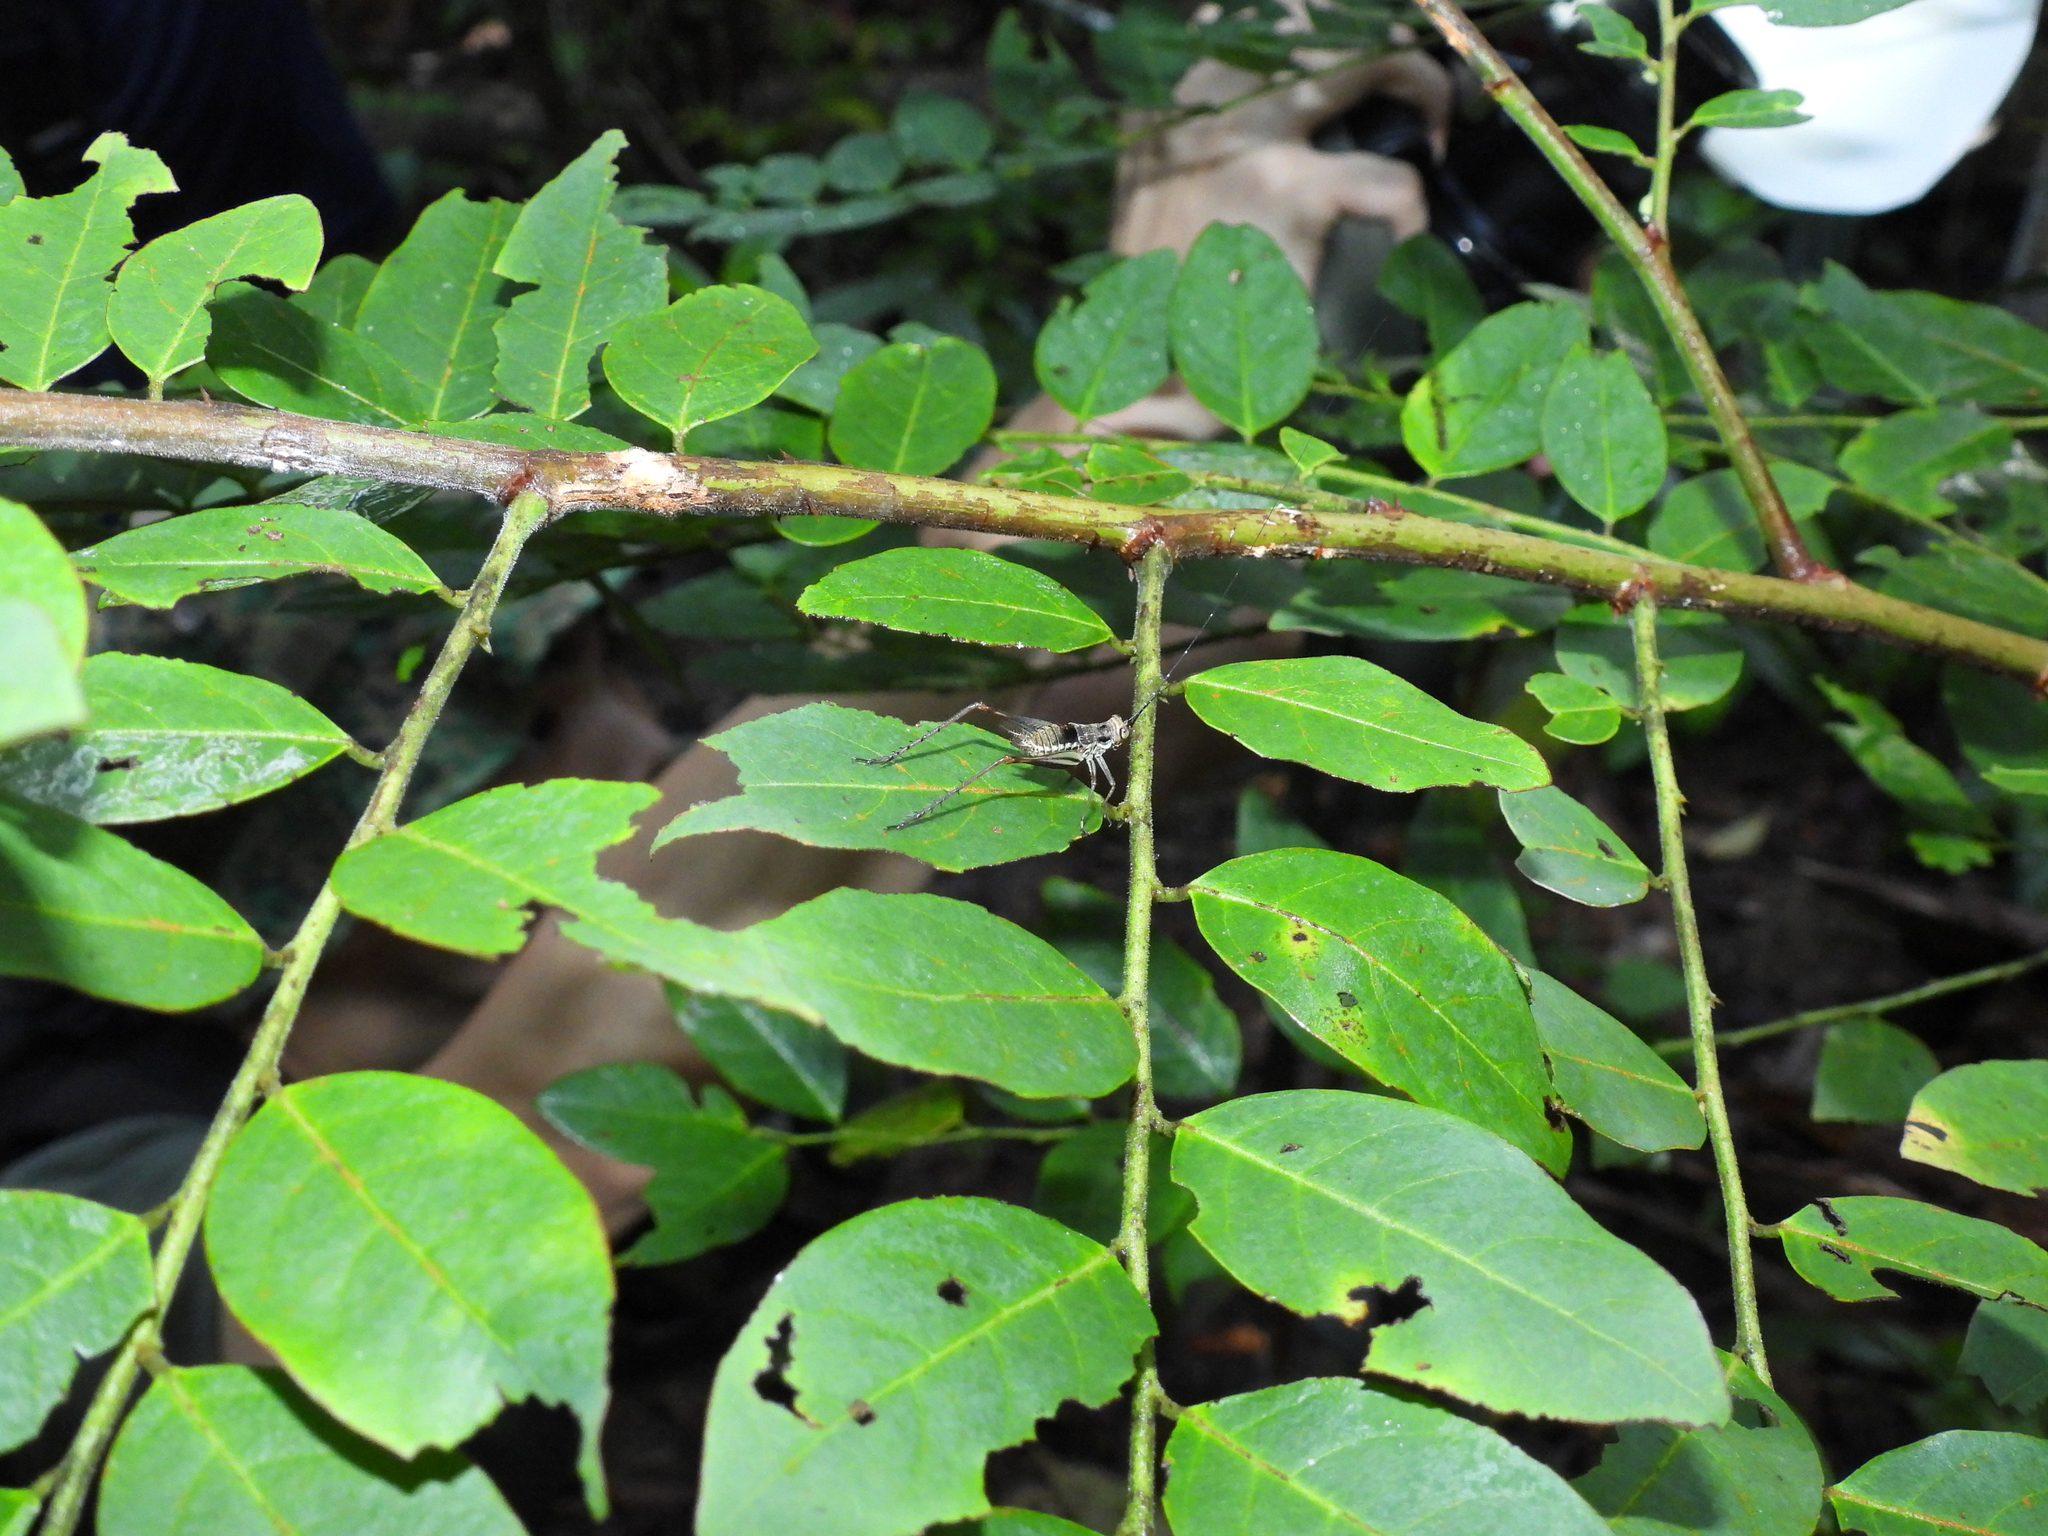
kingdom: Animalia
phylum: Arthropoda
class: Insecta
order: Orthoptera
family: Gryllidae
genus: Nisitrus
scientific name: Nisitrus malaya
